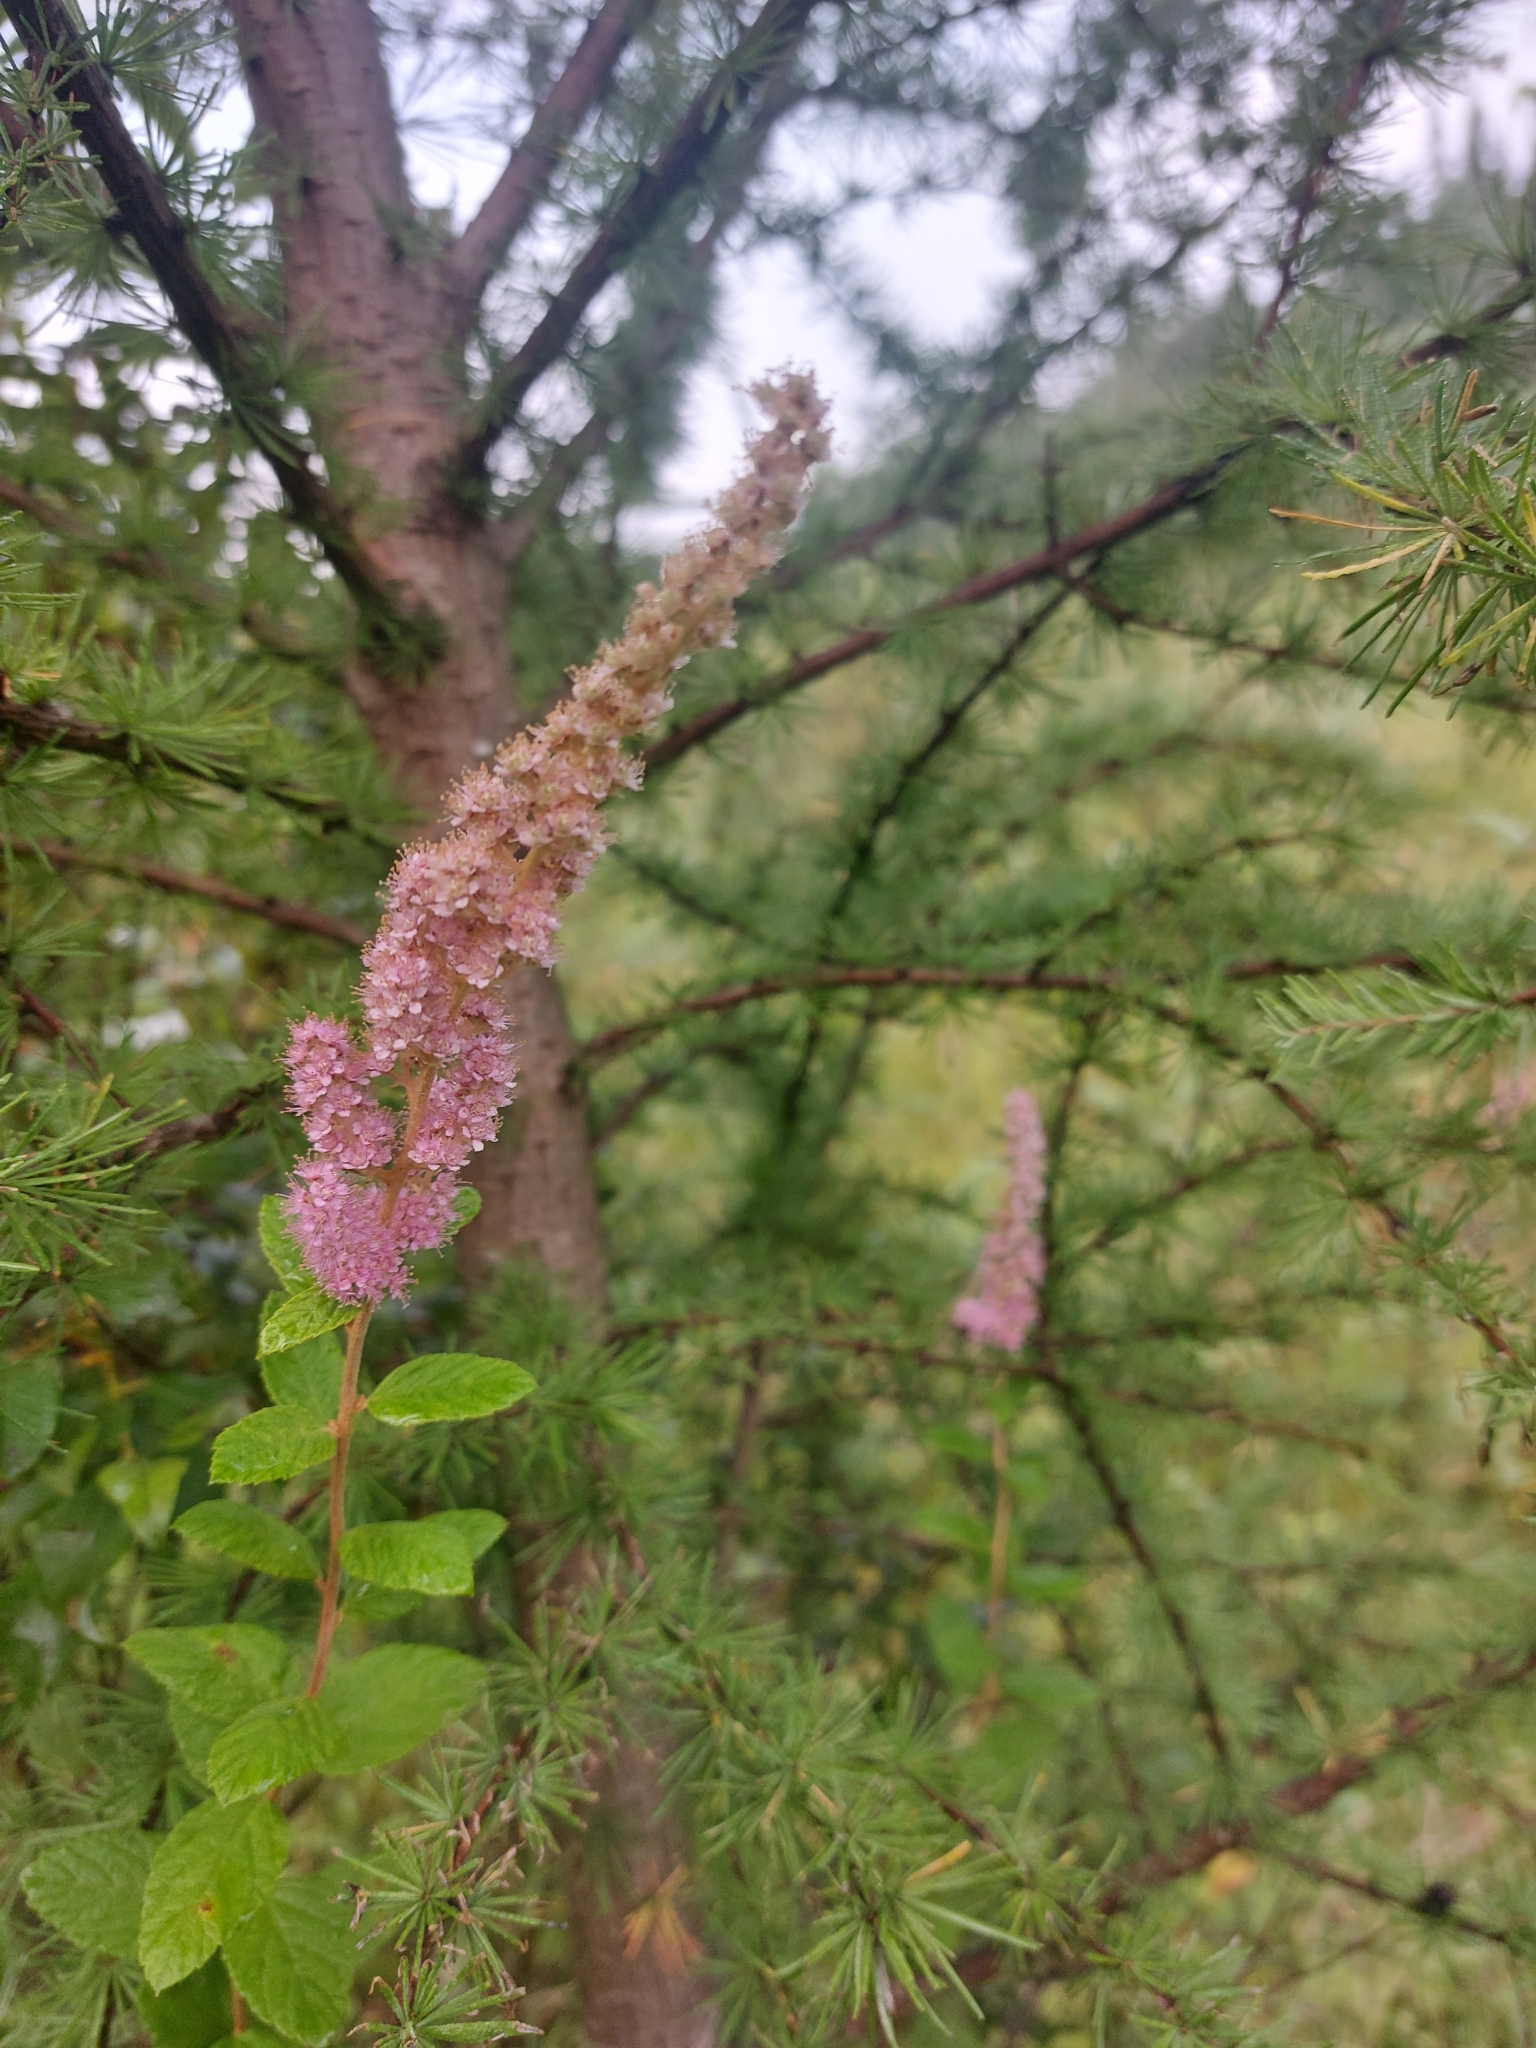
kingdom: Plantae
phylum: Tracheophyta
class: Magnoliopsida
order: Rosales
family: Rosaceae
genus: Spiraea
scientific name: Spiraea tomentosa
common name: Hardhack
